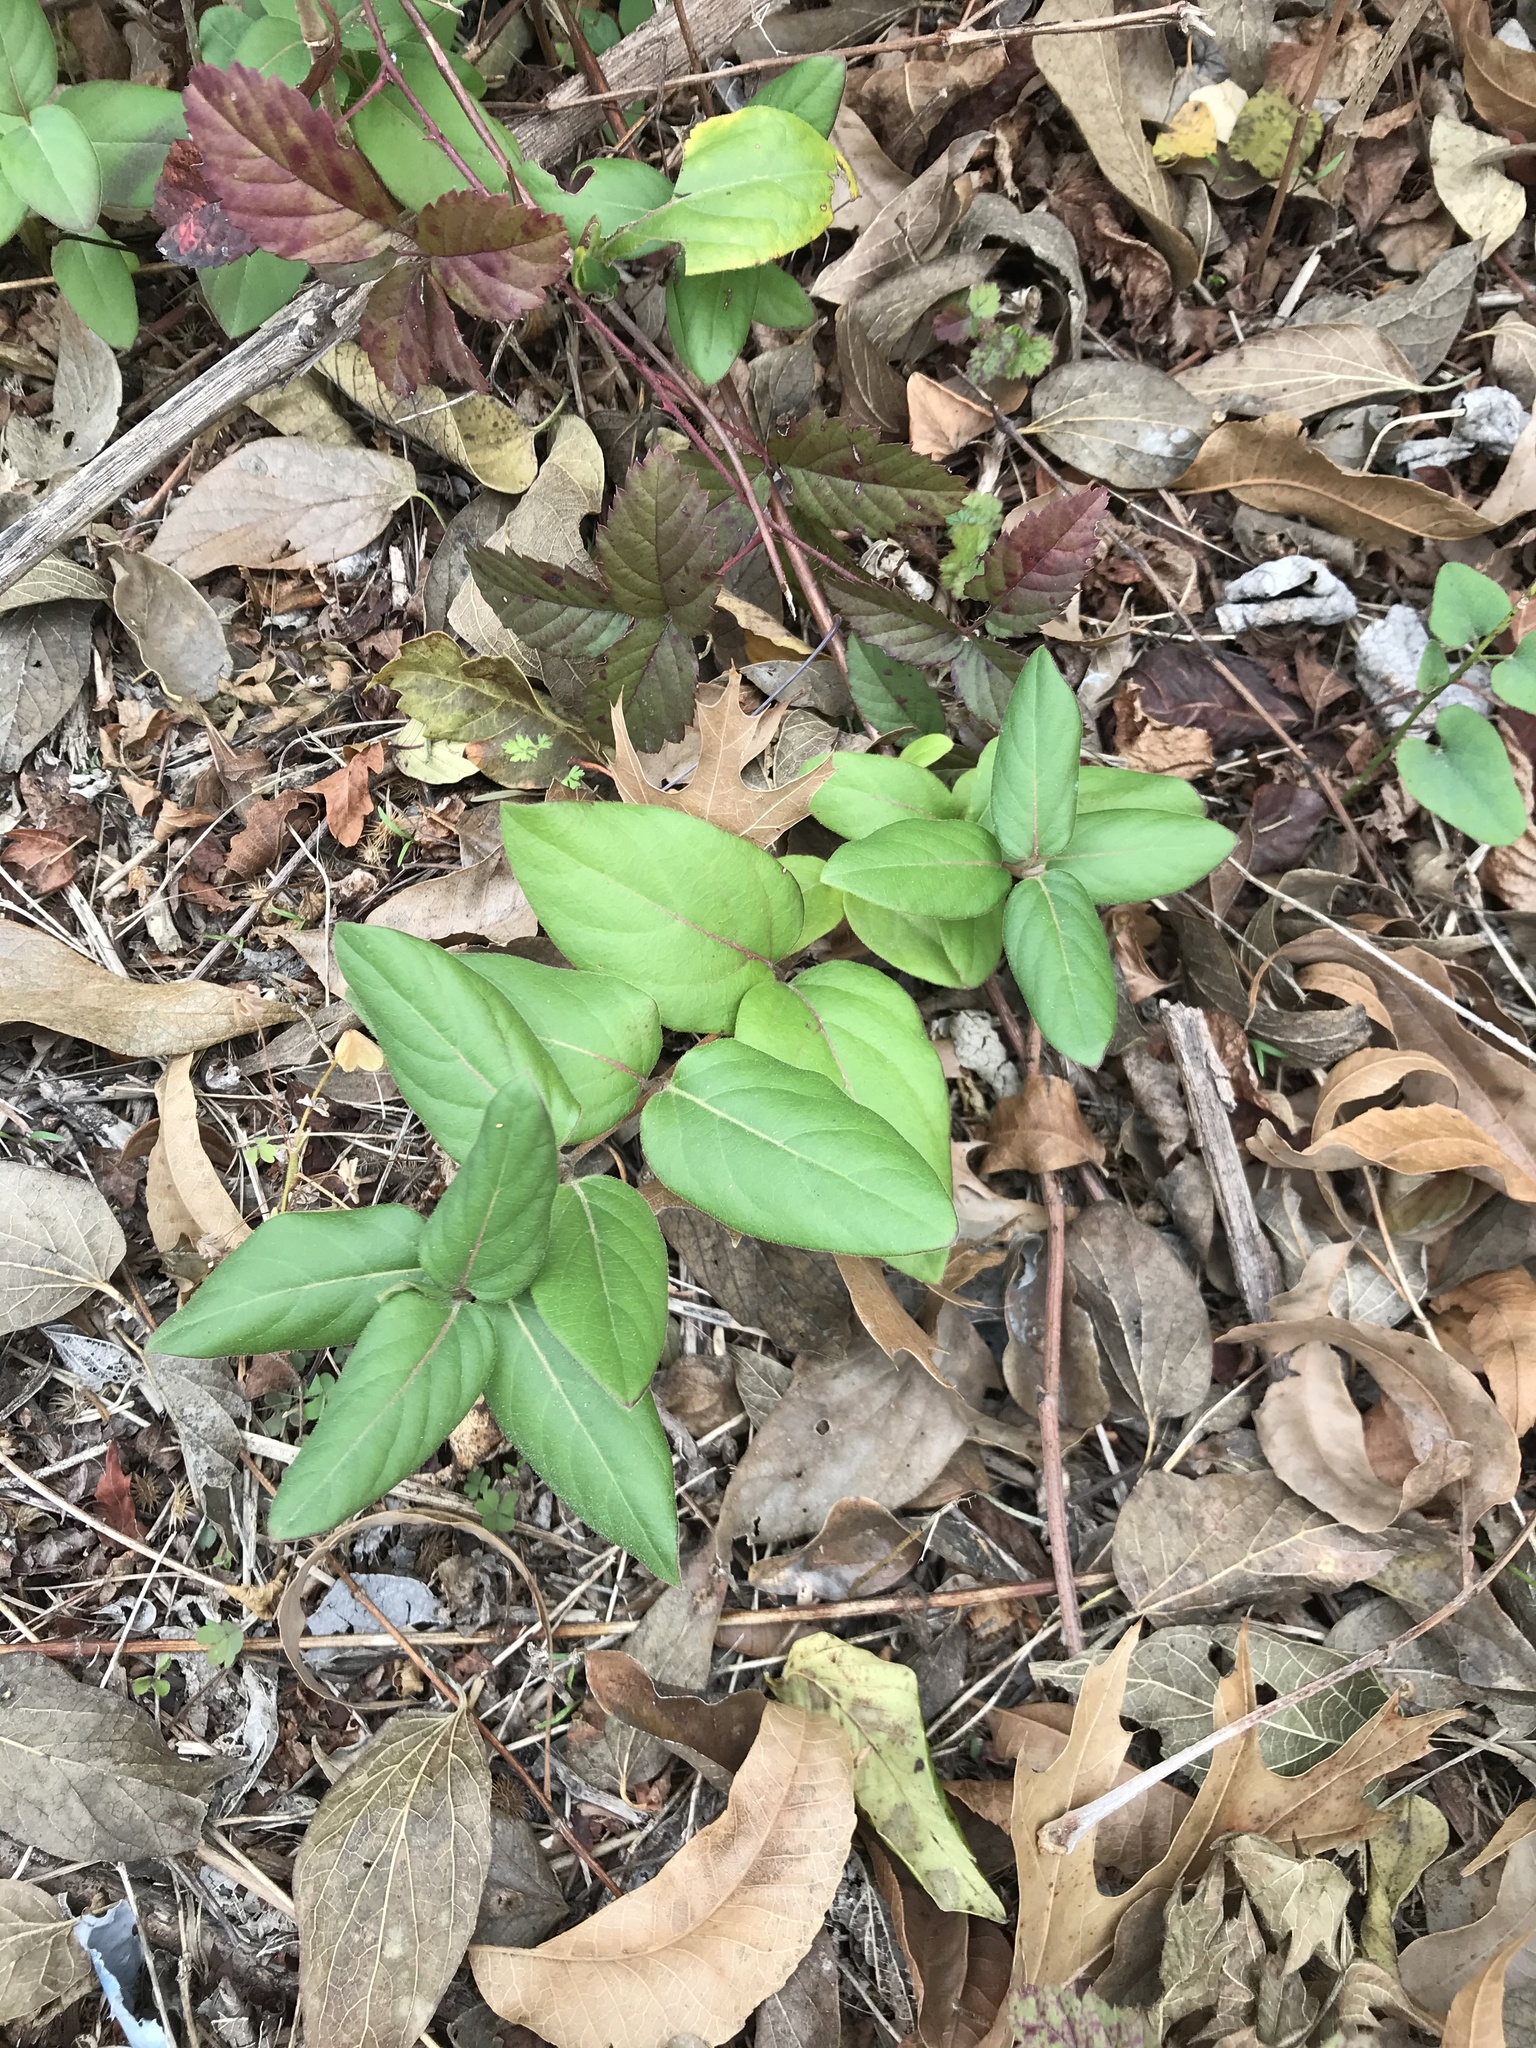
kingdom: Plantae
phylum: Tracheophyta
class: Magnoliopsida
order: Dipsacales
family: Caprifoliaceae
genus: Lonicera
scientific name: Lonicera japonica
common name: Japanese honeysuckle
